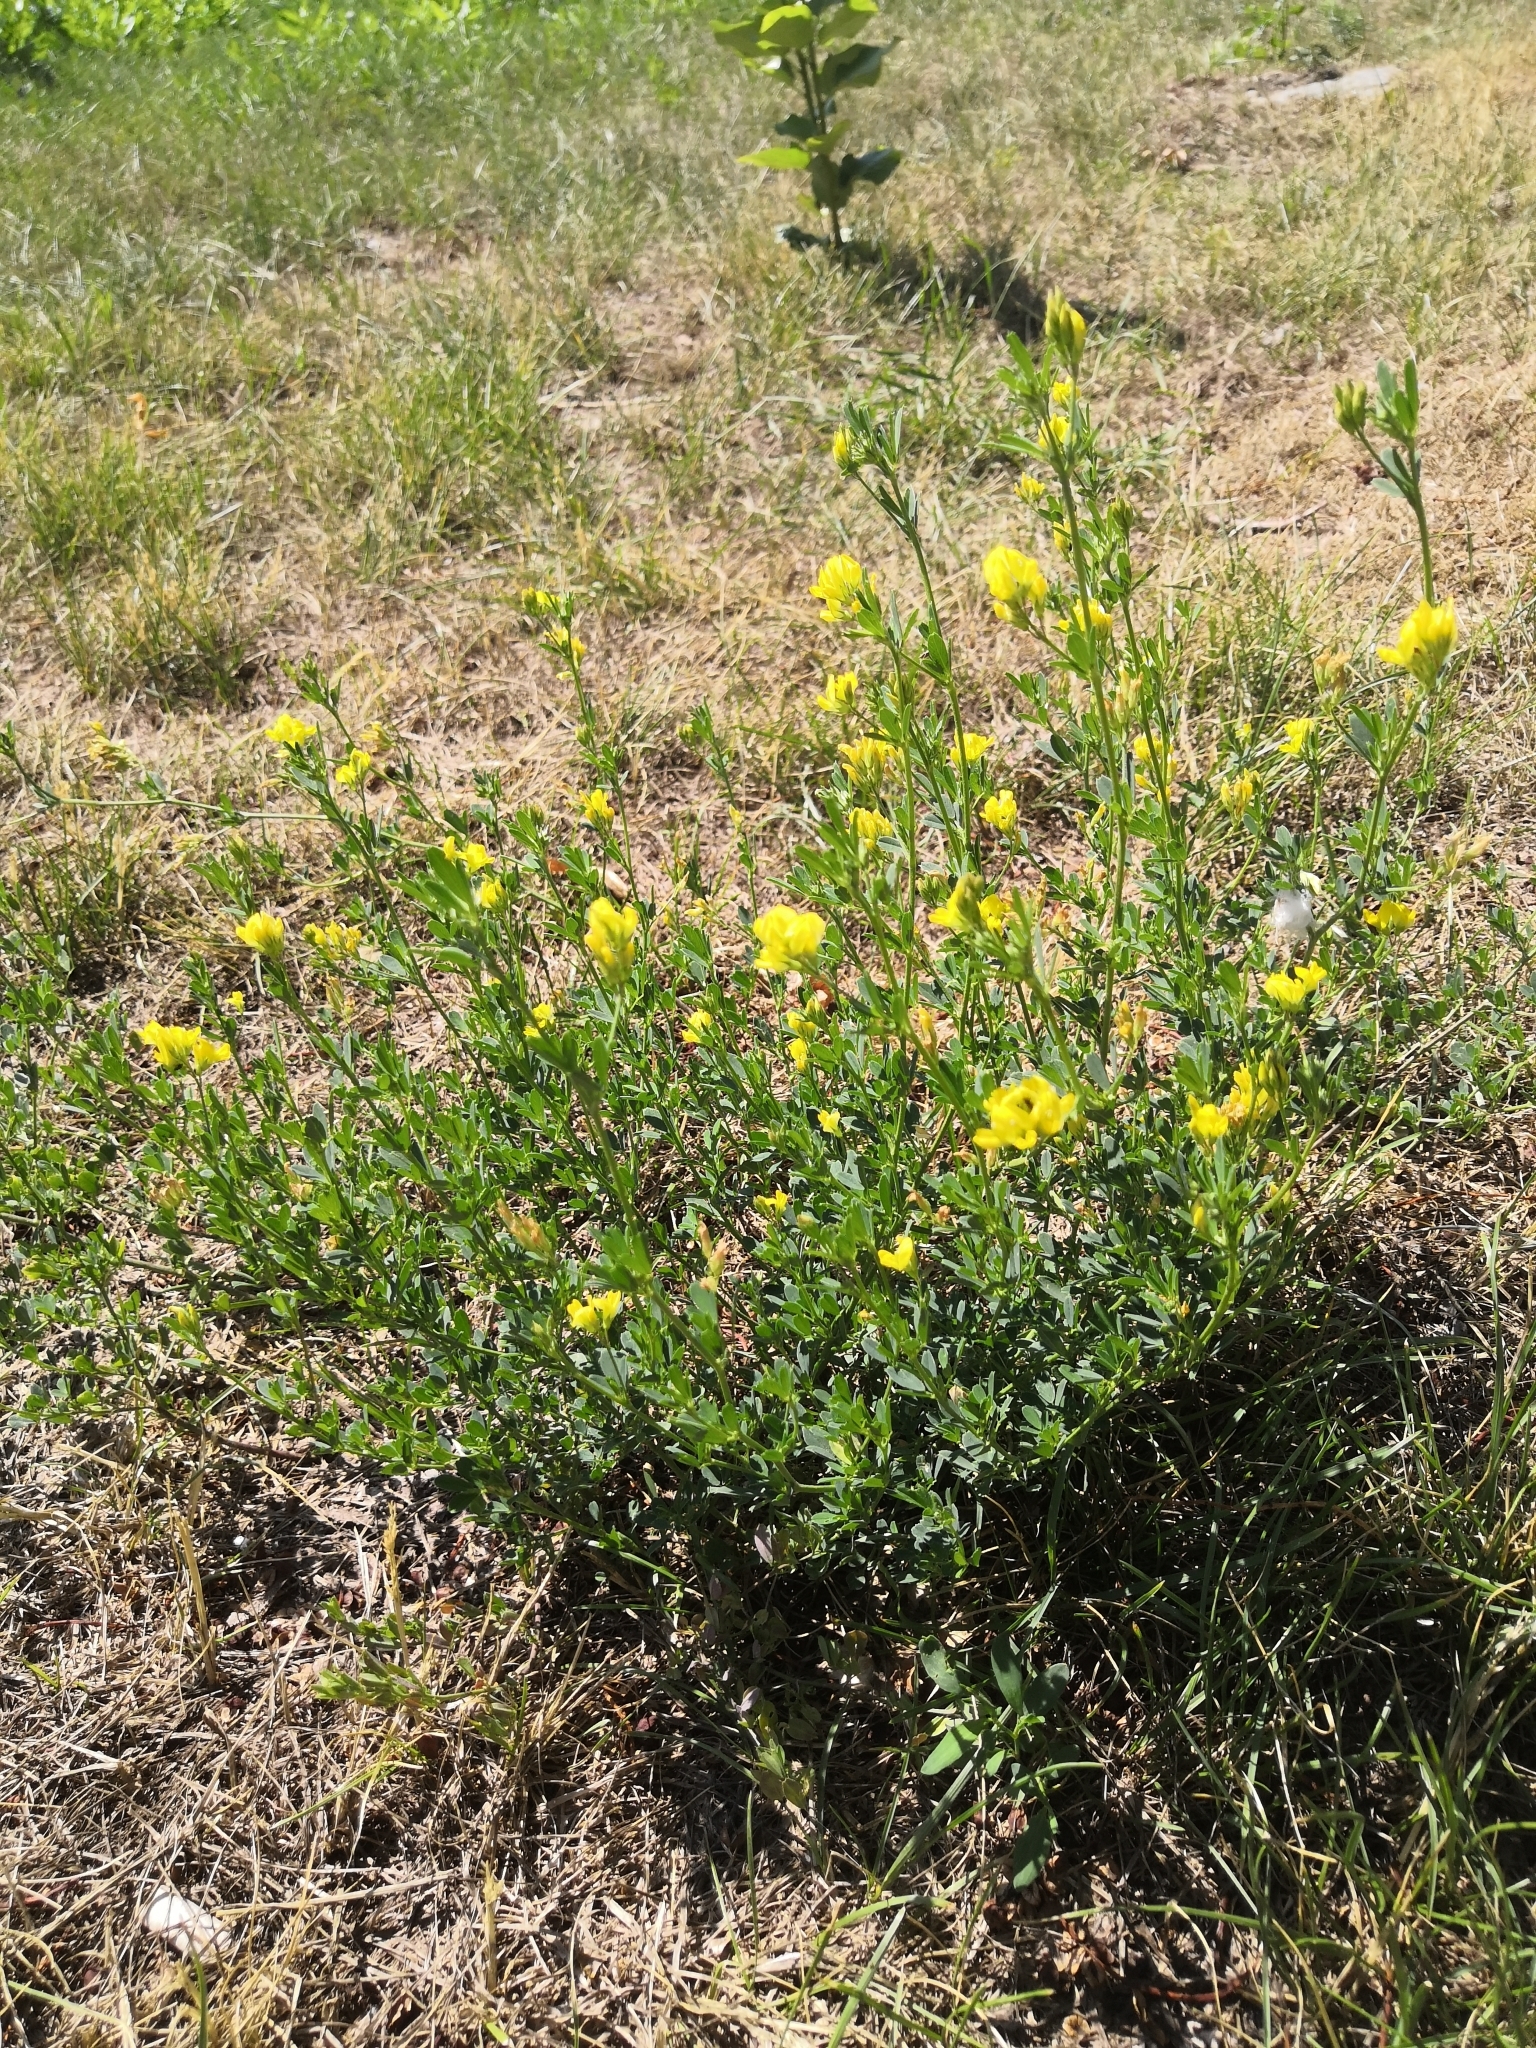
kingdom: Plantae
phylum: Tracheophyta
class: Magnoliopsida
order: Fabales
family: Fabaceae
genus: Medicago
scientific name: Medicago falcata
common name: Sickle medick
